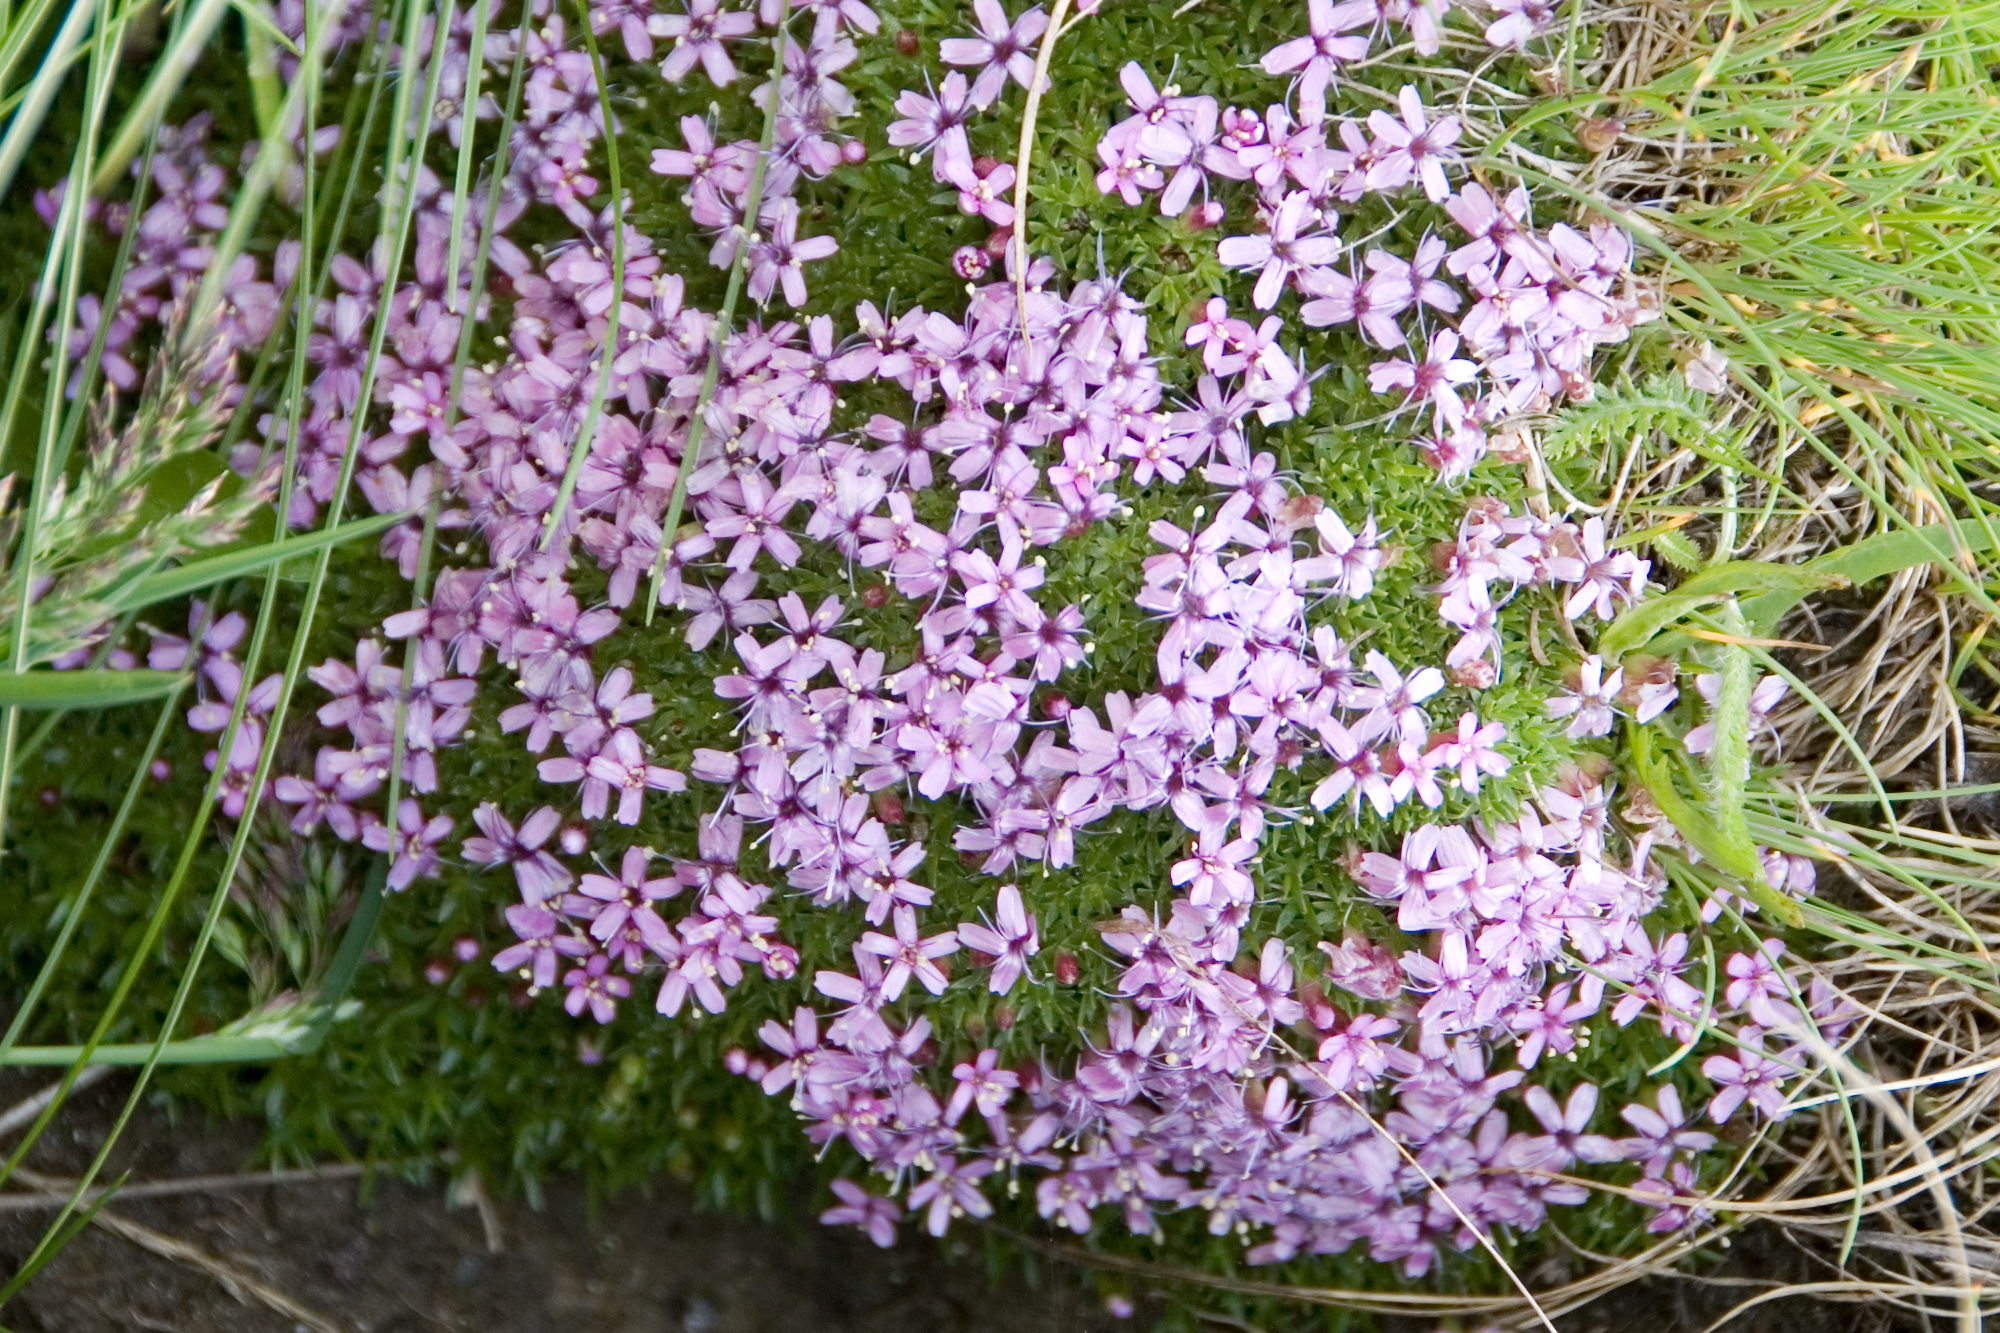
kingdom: Plantae
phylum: Tracheophyta
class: Magnoliopsida
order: Caryophyllales
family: Caryophyllaceae
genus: Silene
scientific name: Silene acaulis
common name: Moss campion
